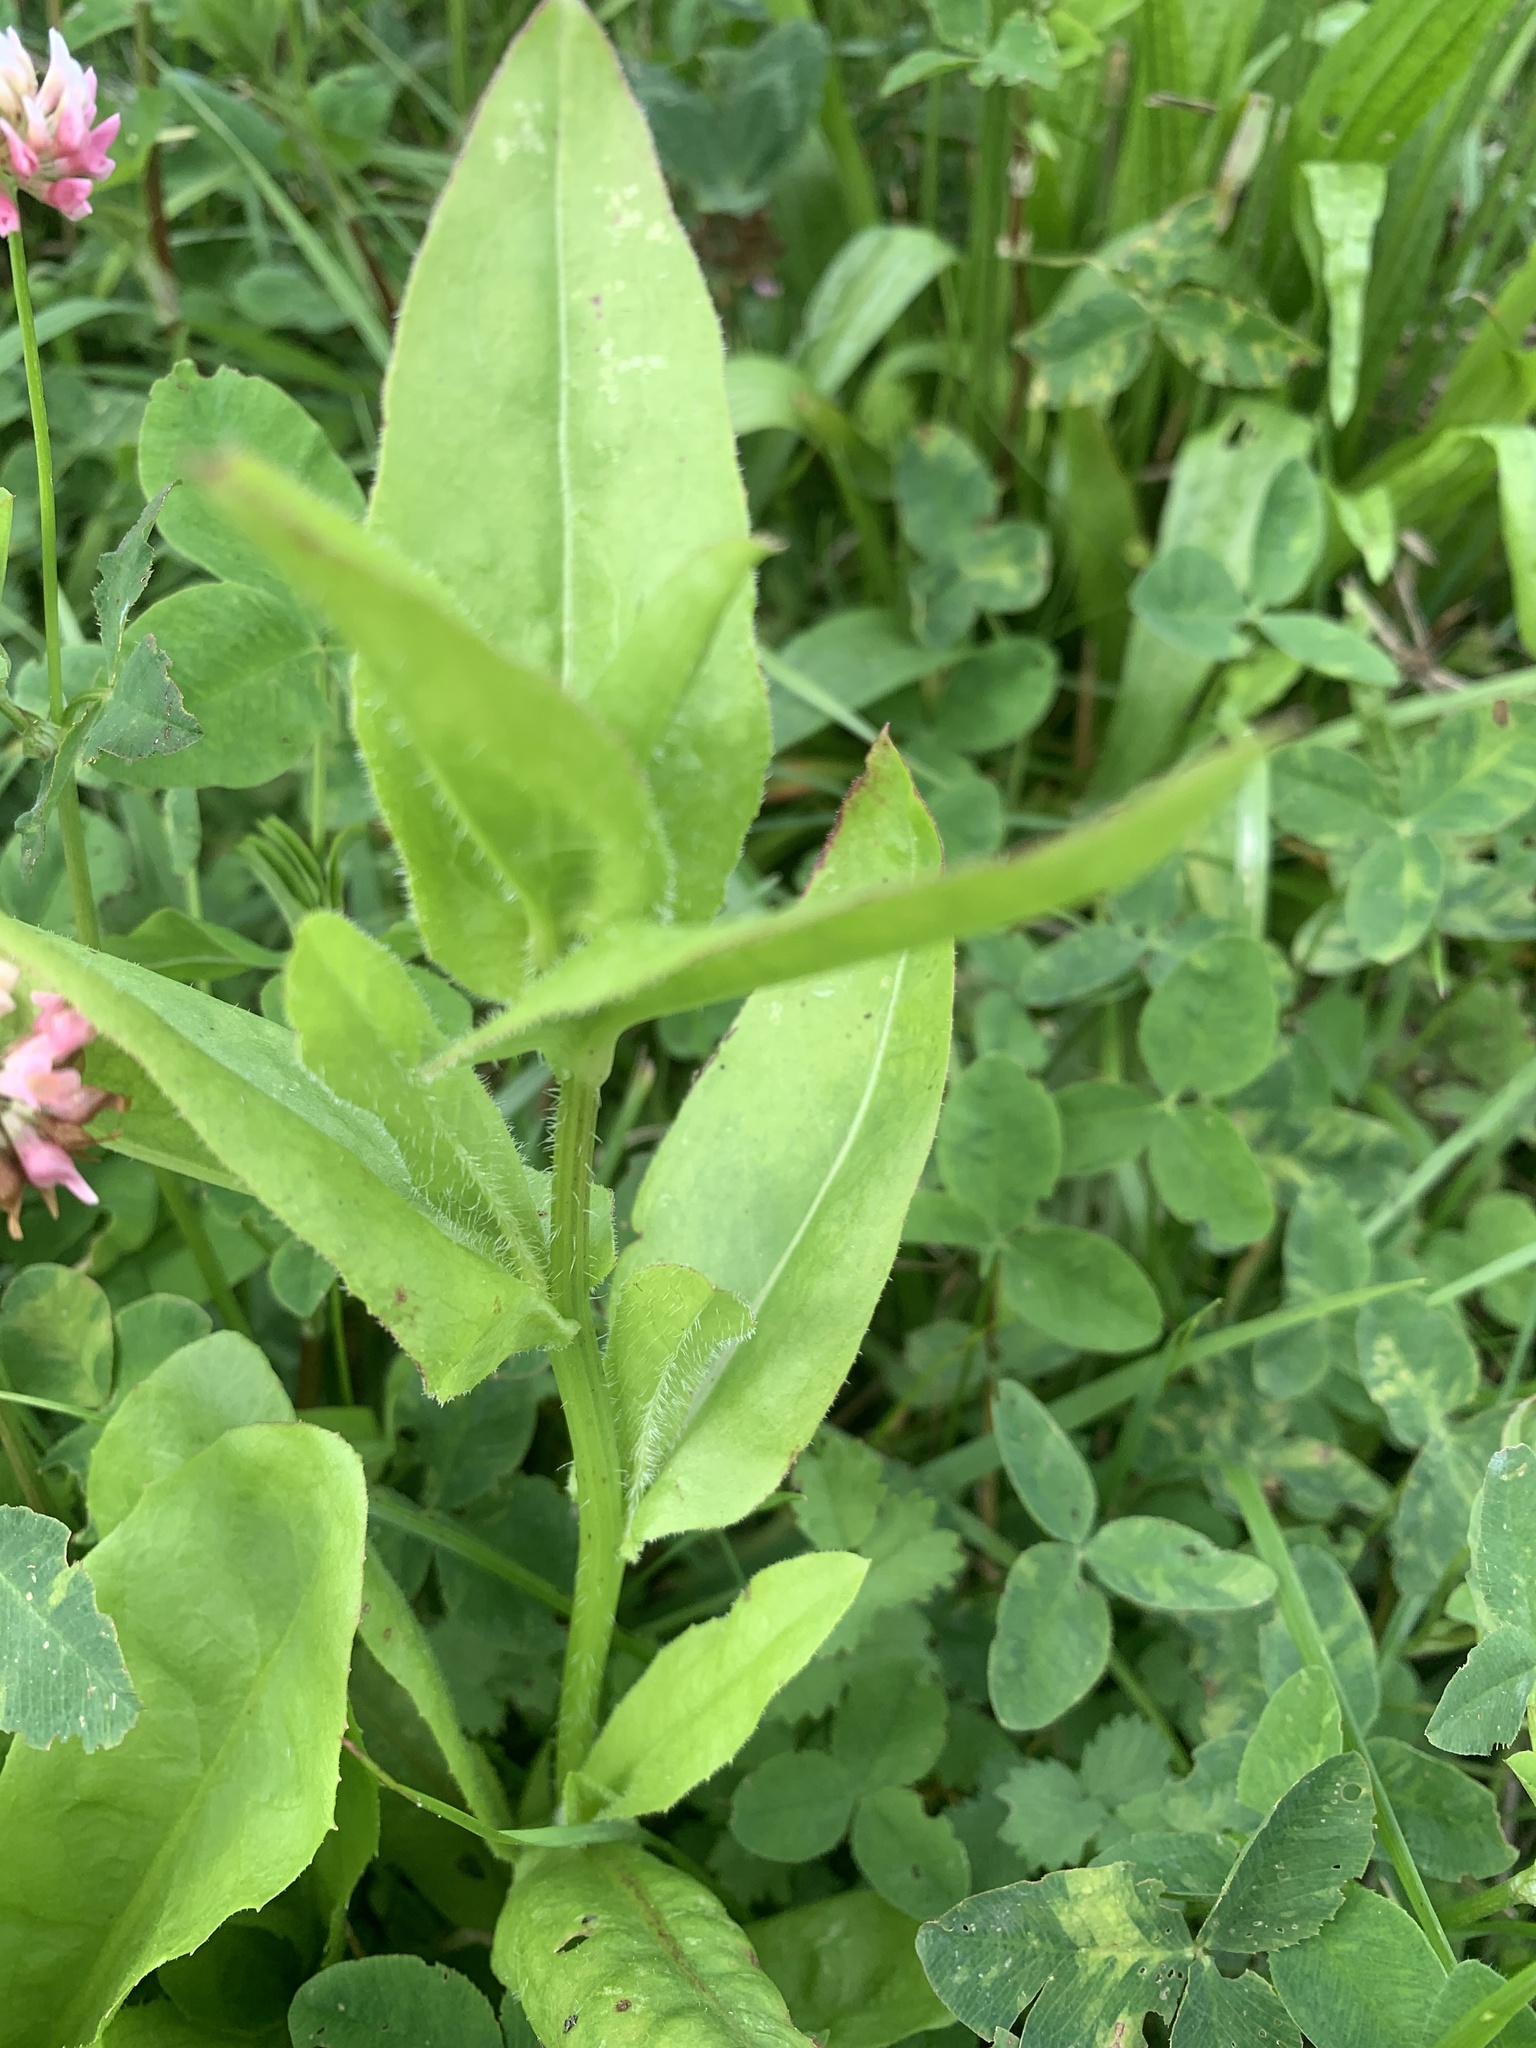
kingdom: Plantae
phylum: Tracheophyta
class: Magnoliopsida
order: Caryophyllales
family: Polygonaceae
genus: Rumex
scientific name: Rumex acetosa
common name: Garden sorrel
